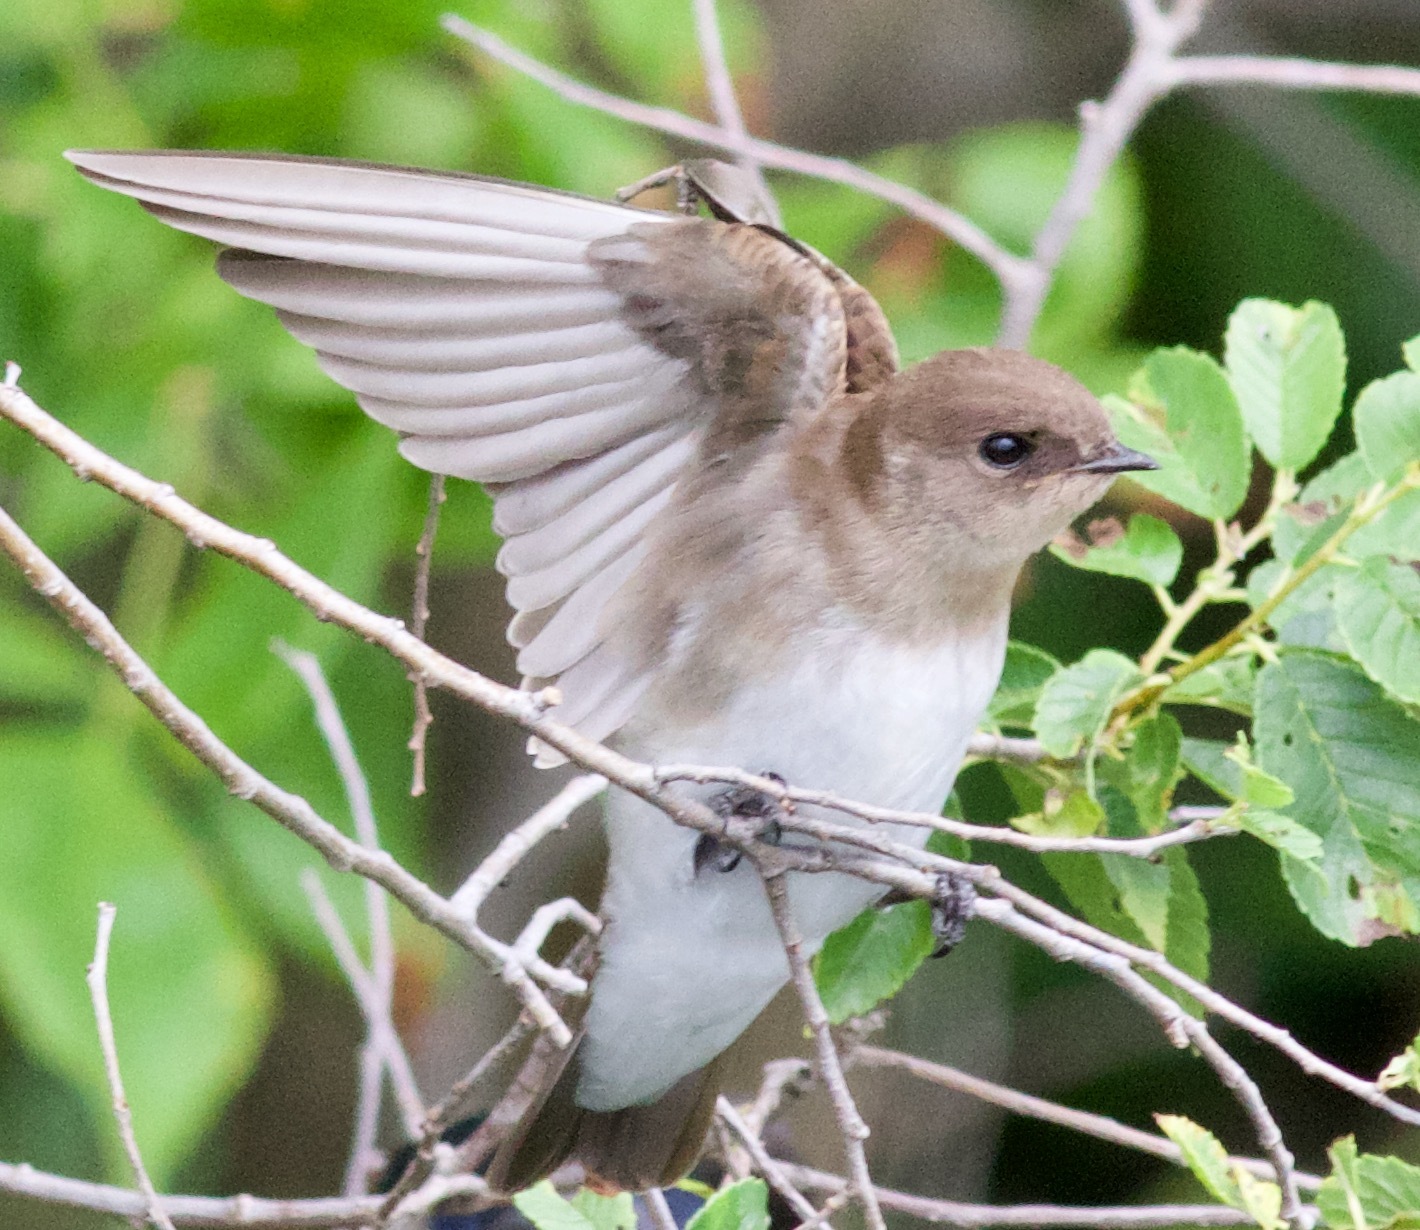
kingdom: Animalia
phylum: Chordata
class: Aves
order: Passeriformes
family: Hirundinidae
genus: Stelgidopteryx
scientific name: Stelgidopteryx serripennis
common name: Northern rough-winged swallow
